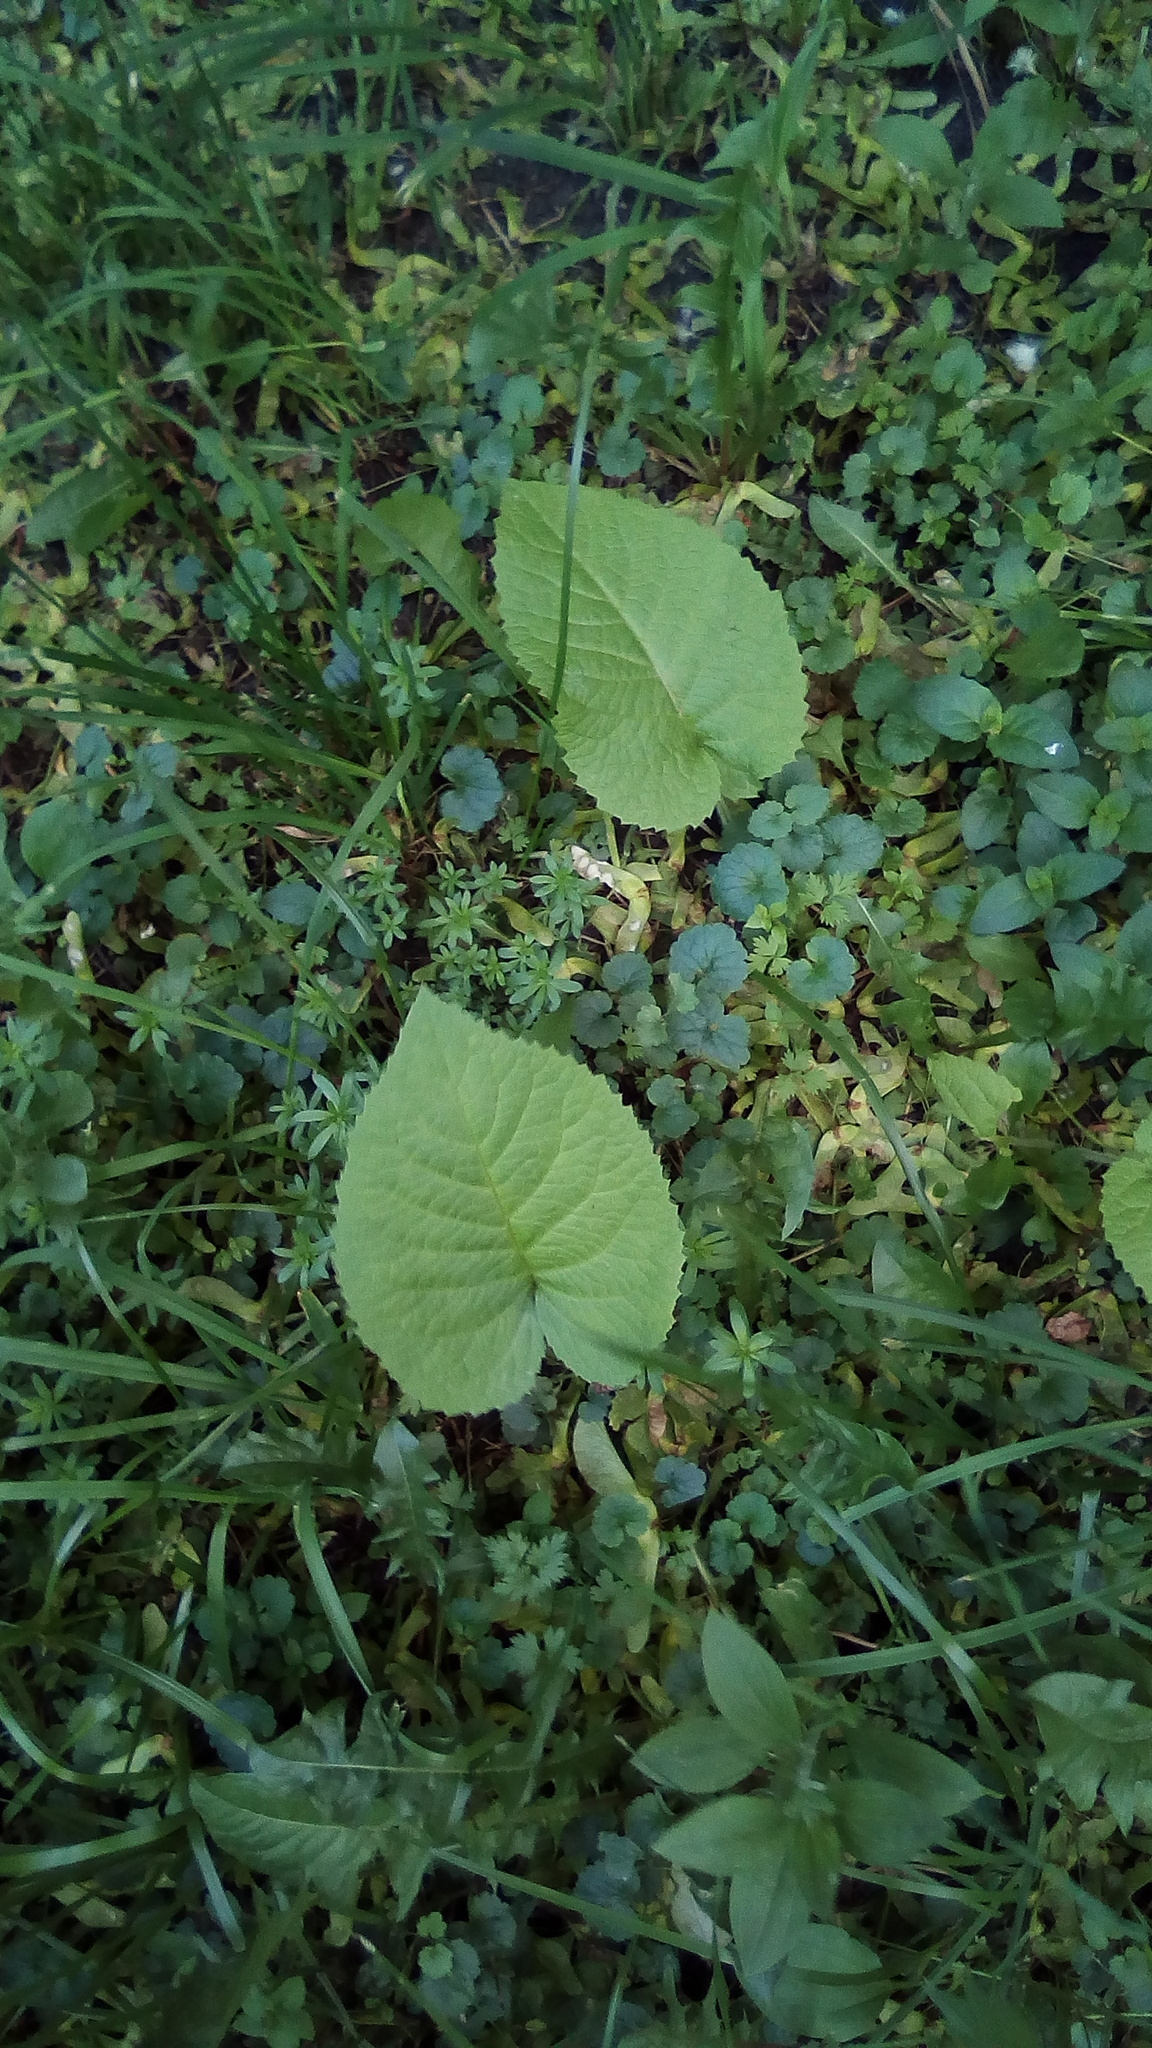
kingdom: Plantae
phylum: Tracheophyta
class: Magnoliopsida
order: Asterales
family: Asteraceae
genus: Telekia
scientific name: Telekia speciosa
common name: Yellow oxeye
